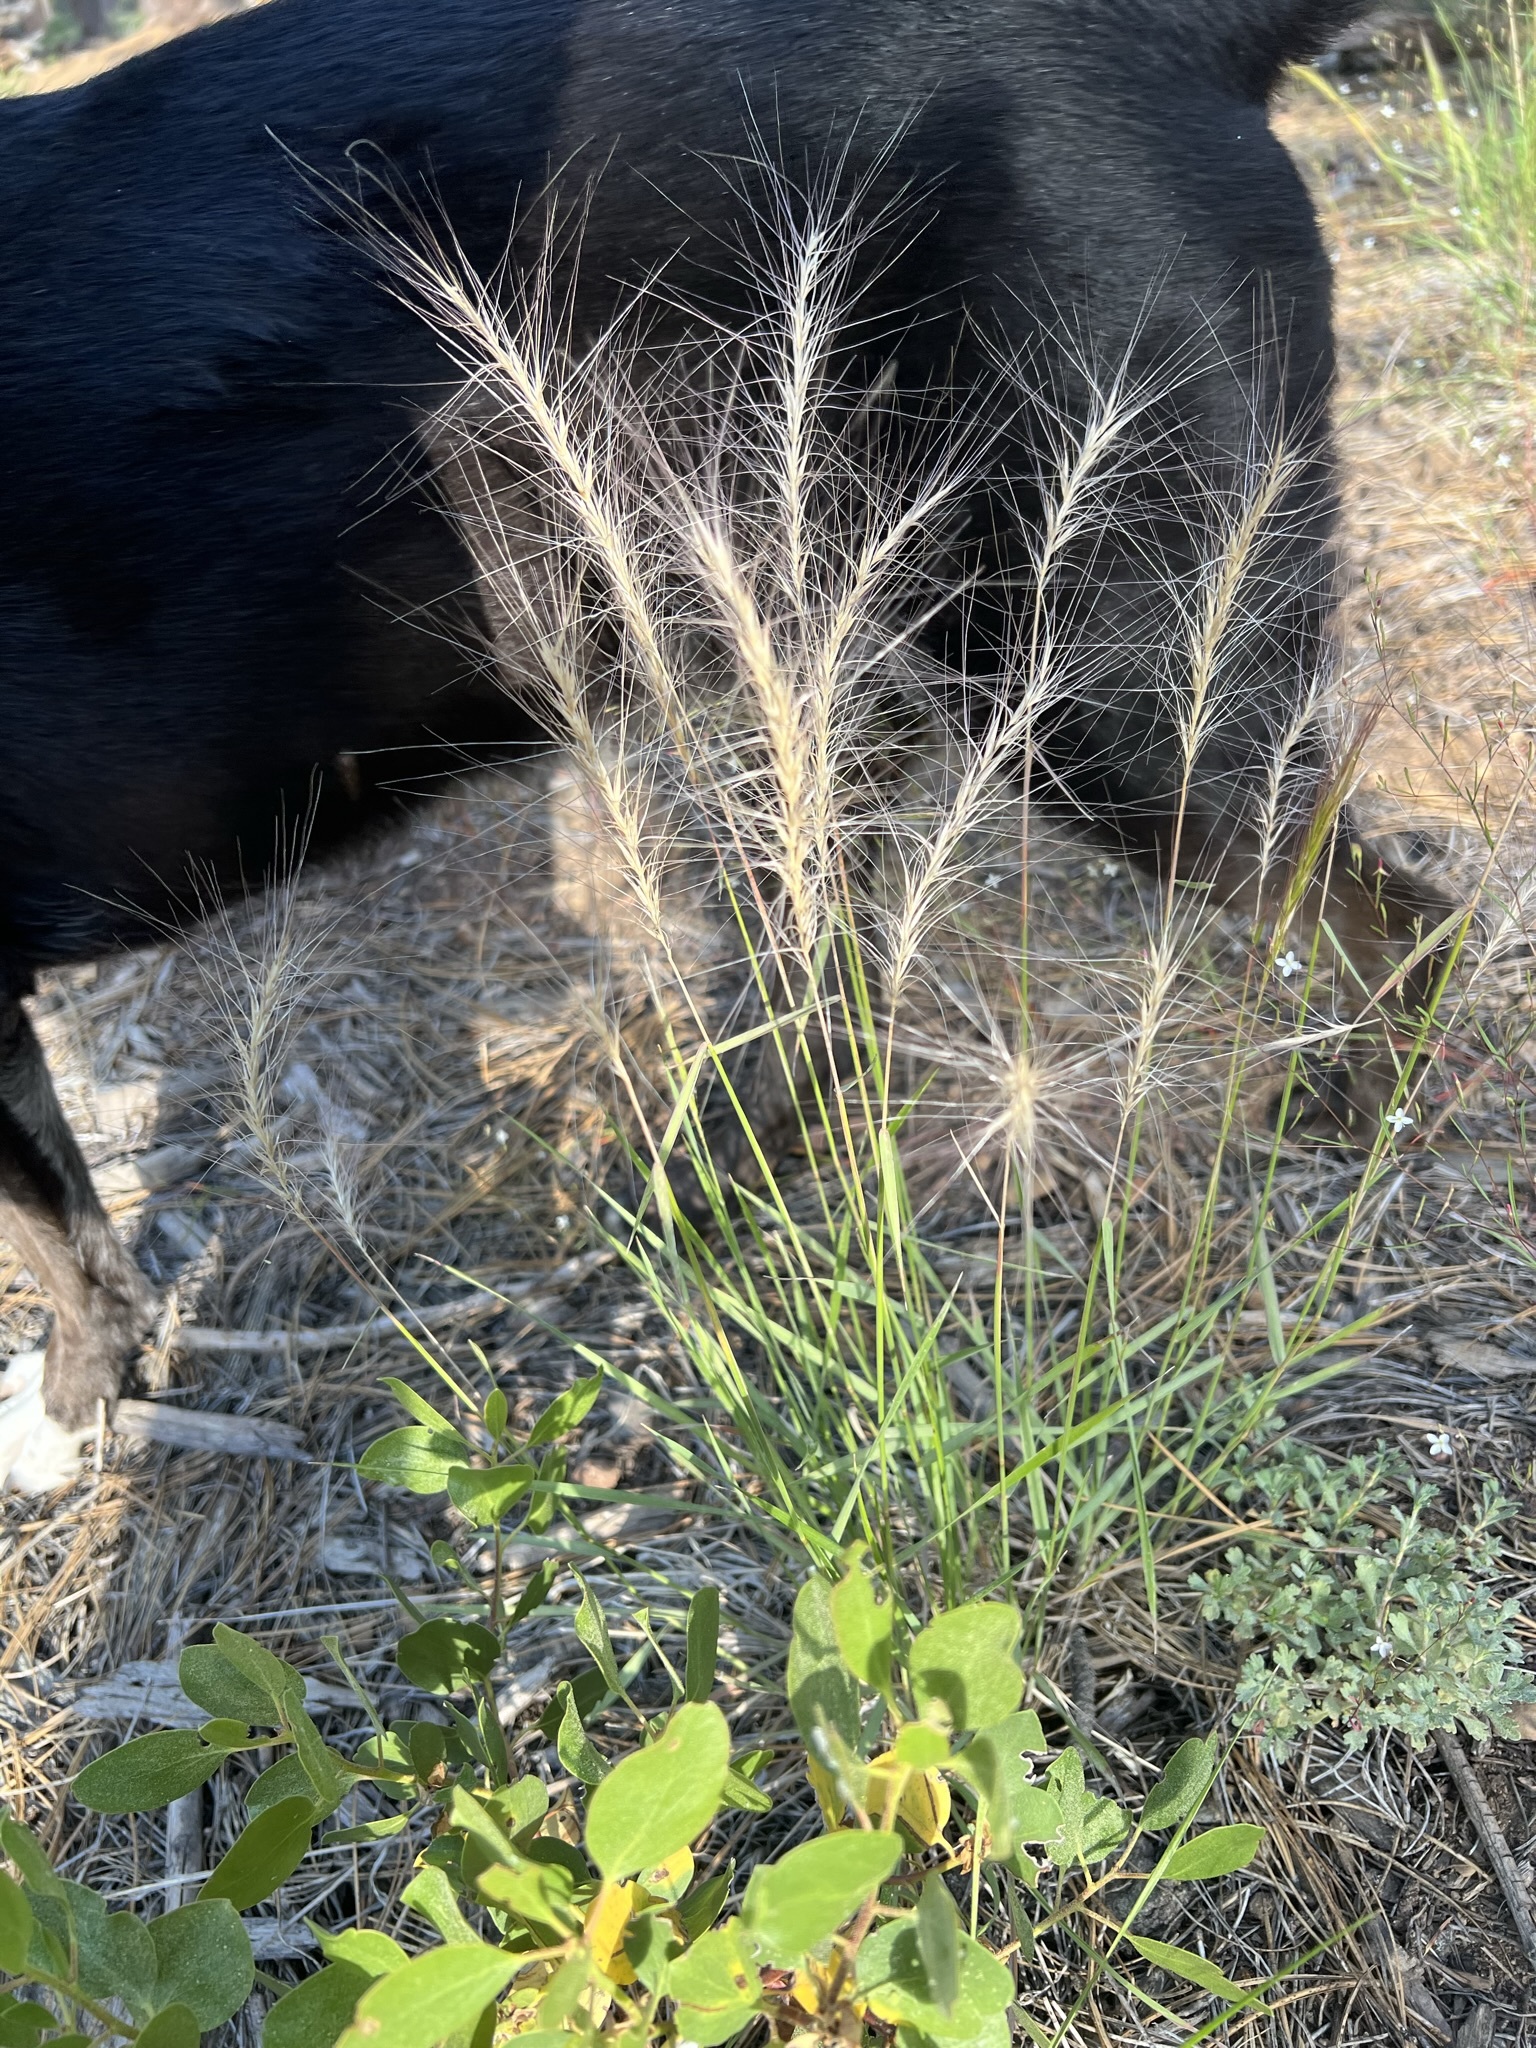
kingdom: Plantae
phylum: Tracheophyta
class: Liliopsida
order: Poales
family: Poaceae
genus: Elymus
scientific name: Elymus elymoides
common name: Bottlebrush squirreltail
